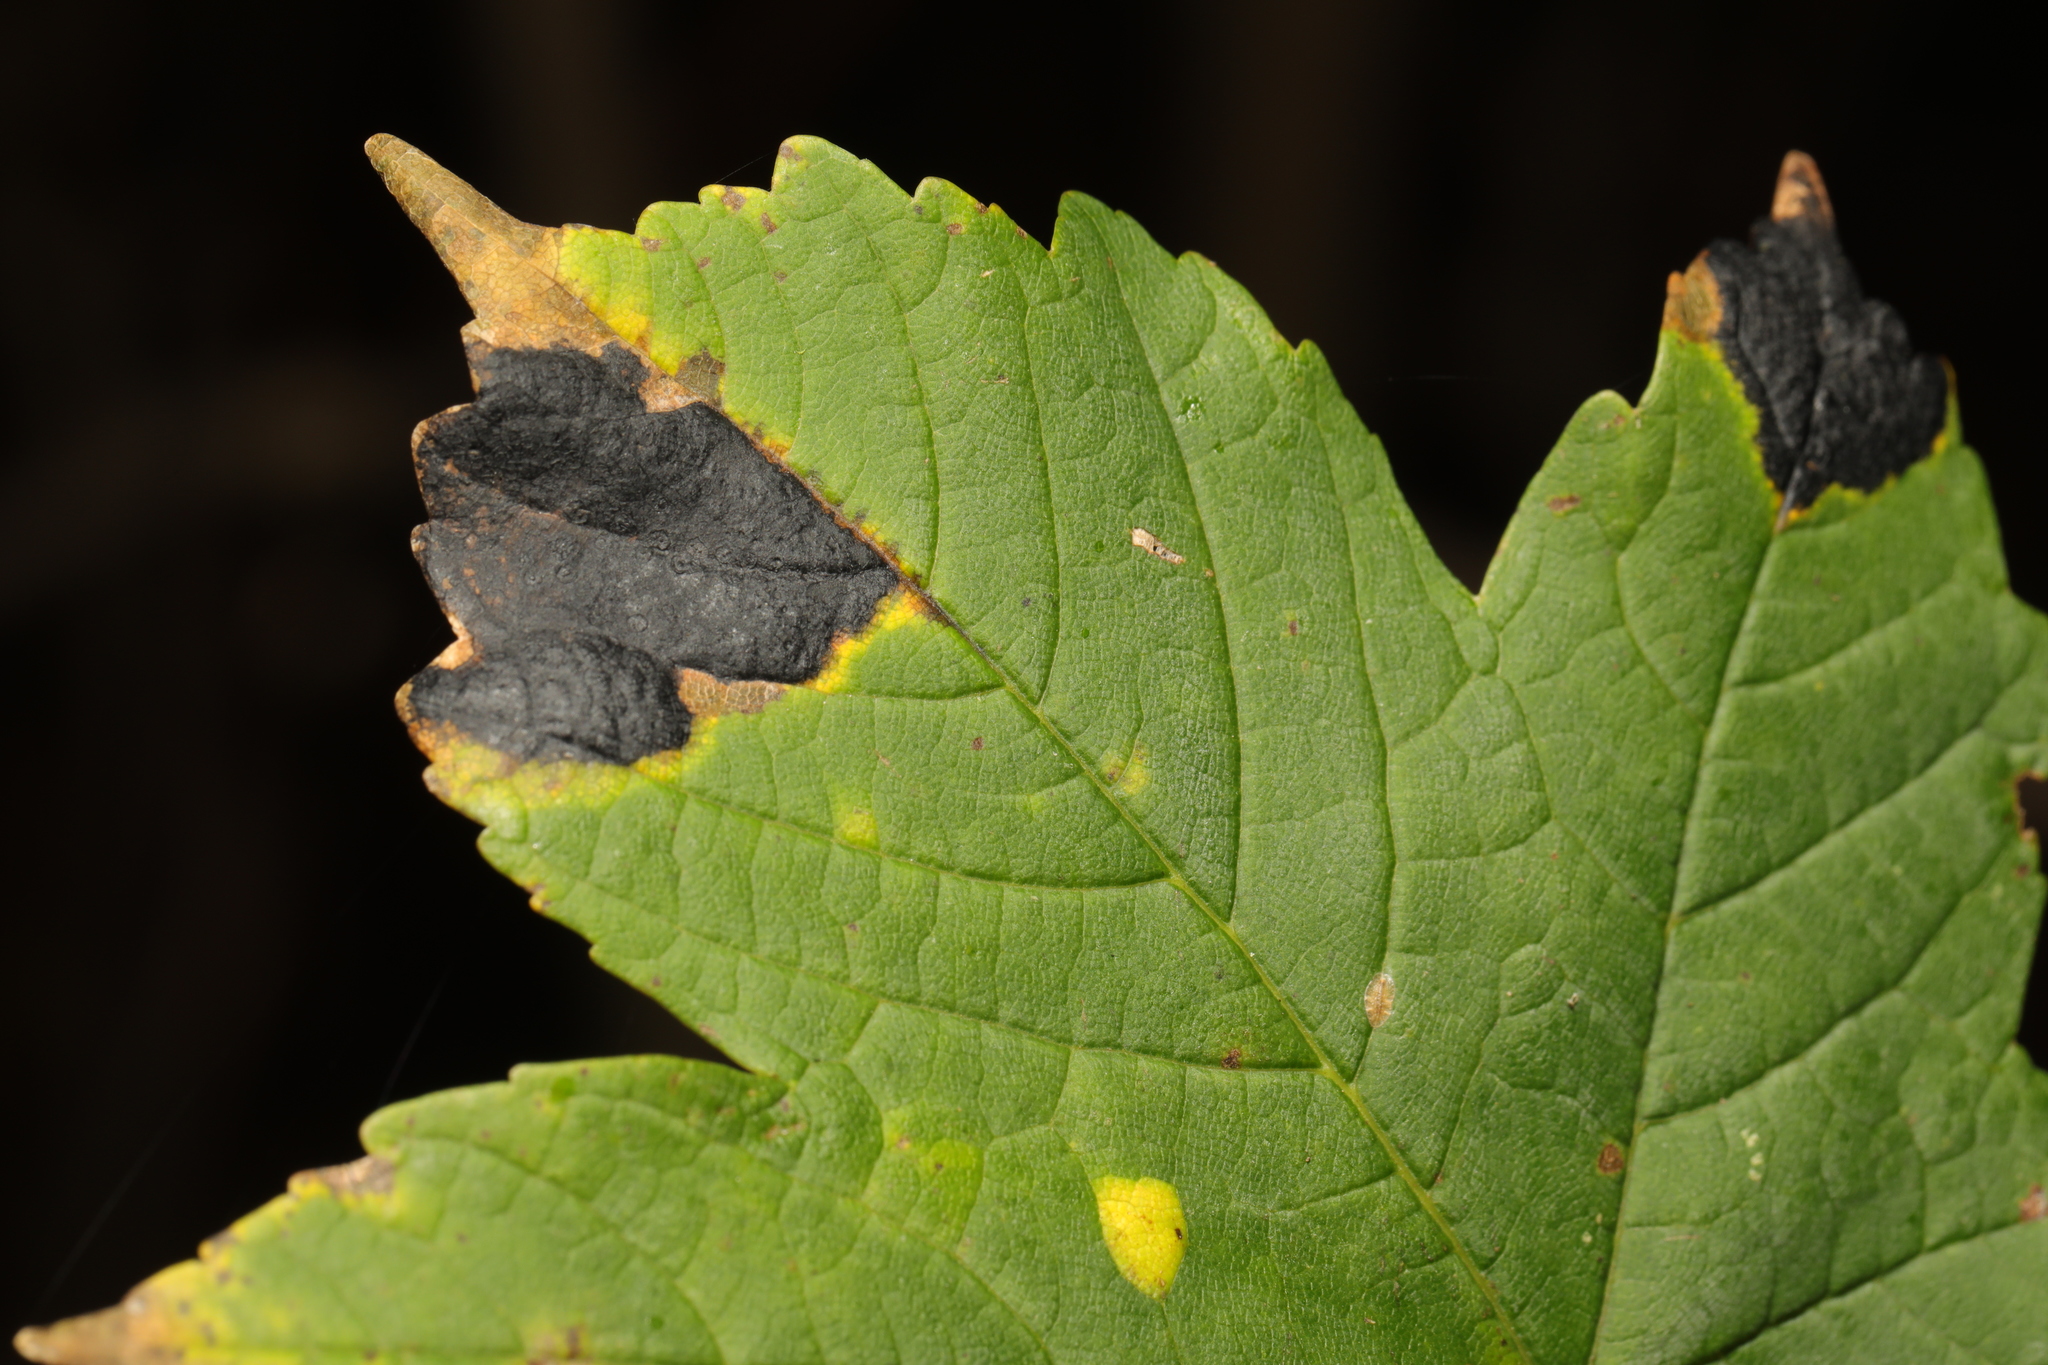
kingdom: Fungi
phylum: Ascomycota
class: Leotiomycetes
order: Rhytismatales
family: Rhytismataceae
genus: Rhytisma
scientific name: Rhytisma acerinum
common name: European tar spot
